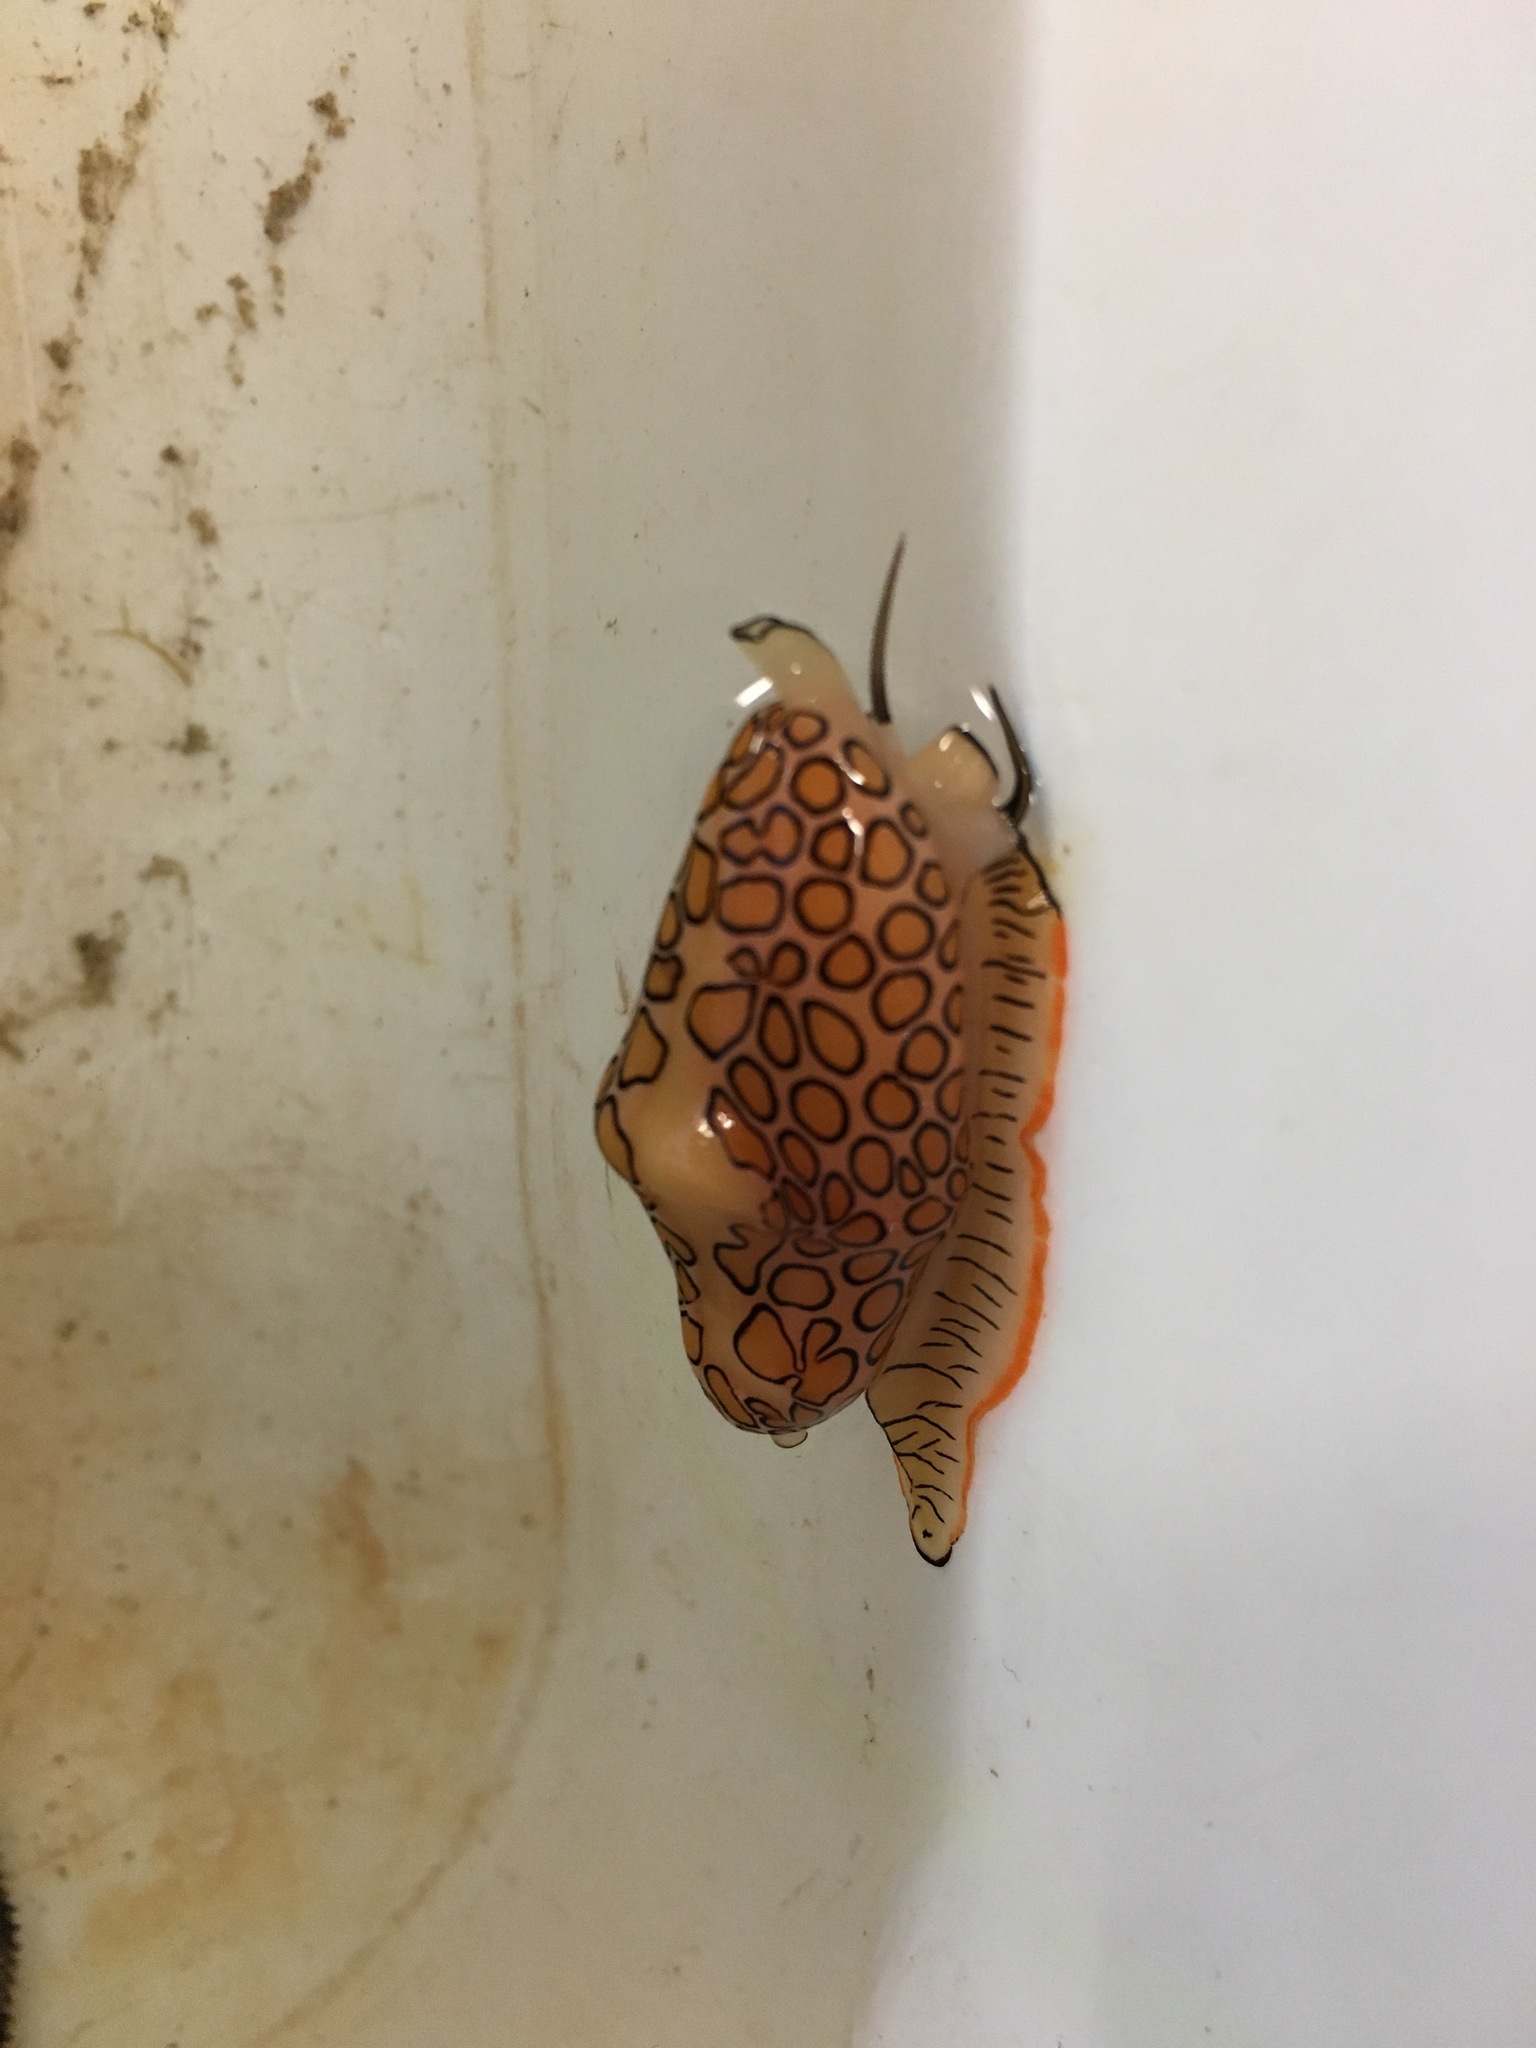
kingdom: Animalia
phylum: Mollusca
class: Gastropoda
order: Littorinimorpha
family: Ovulidae
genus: Cyphoma
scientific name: Cyphoma gibbosum
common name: Flamingo tongue
